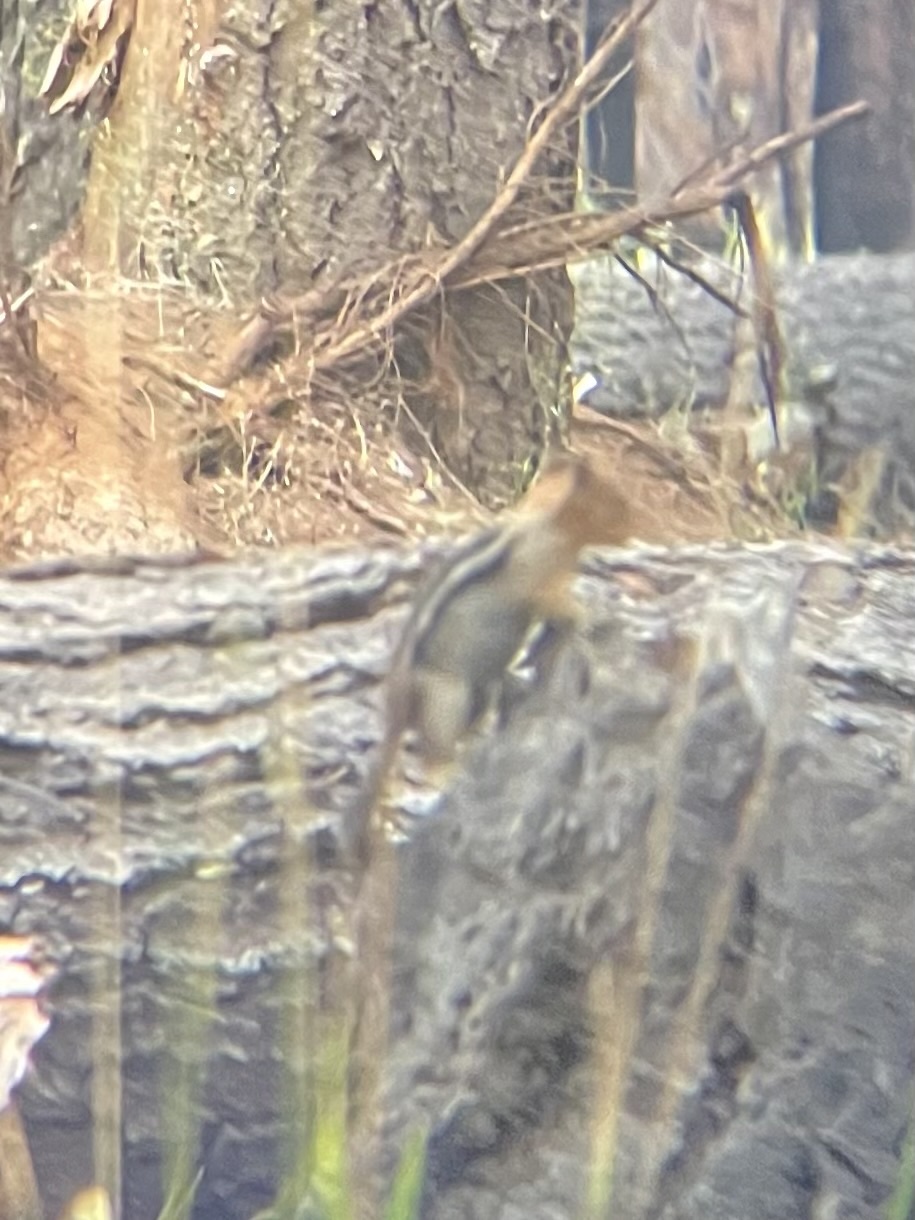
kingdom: Animalia
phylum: Chordata
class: Mammalia
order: Rodentia
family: Sciuridae
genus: Callospermophilus
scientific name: Callospermophilus lateralis
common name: Golden-mantled ground squirrel
